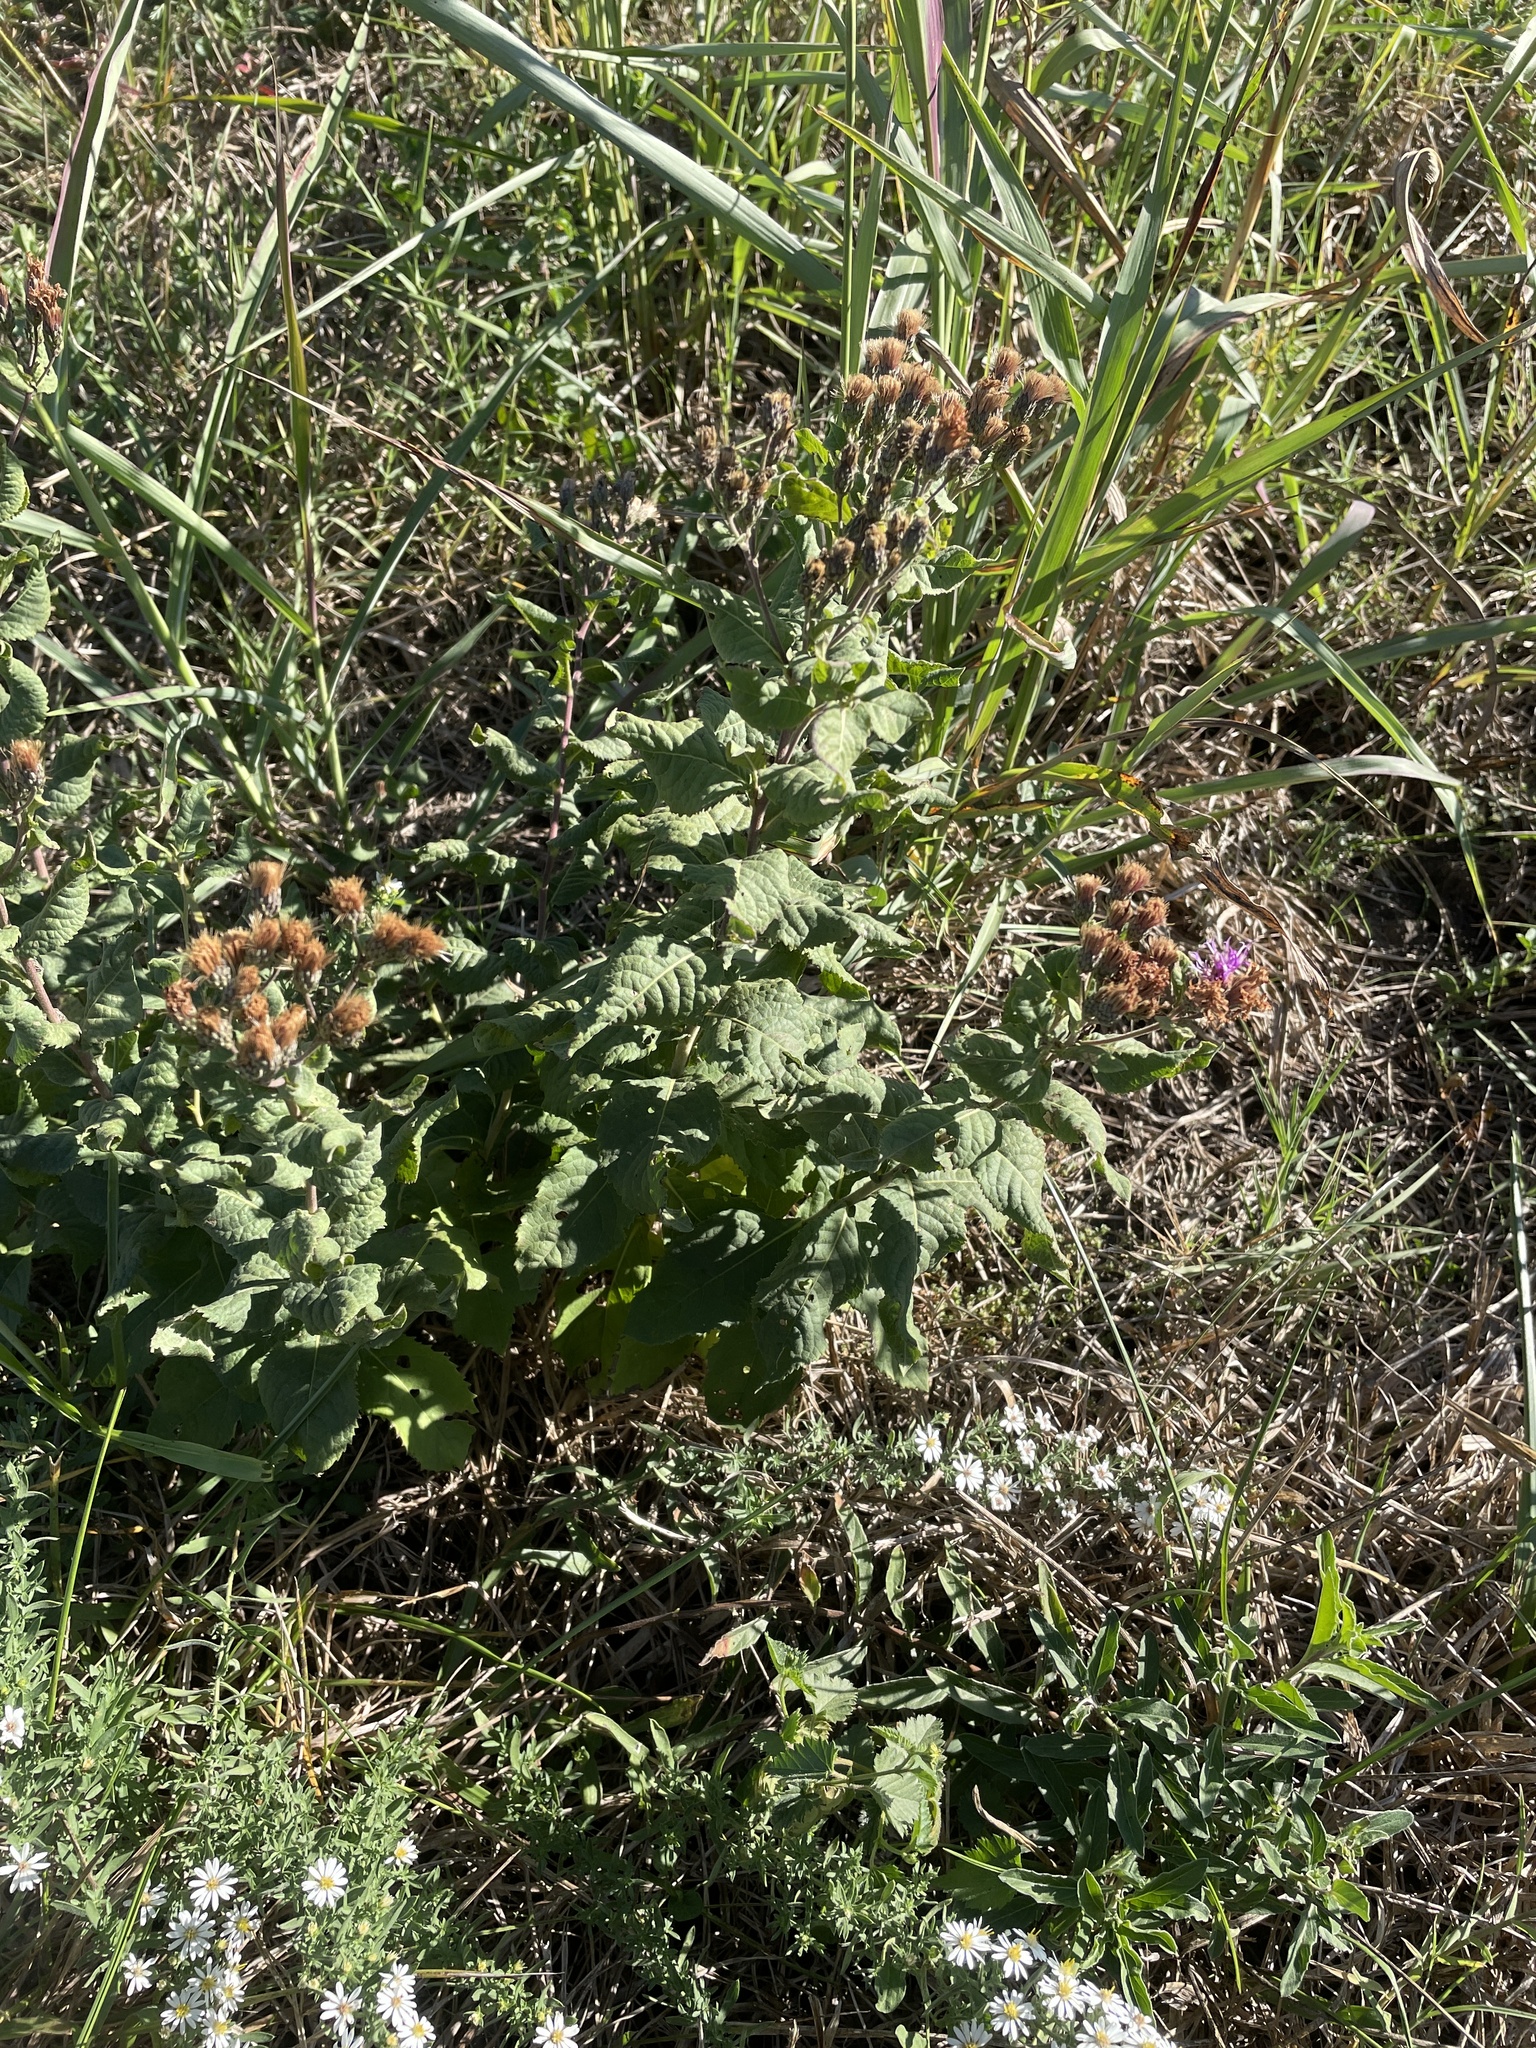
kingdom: Plantae
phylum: Tracheophyta
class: Magnoliopsida
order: Asterales
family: Asteraceae
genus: Vernonia
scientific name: Vernonia baldwinii
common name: Western ironweed
